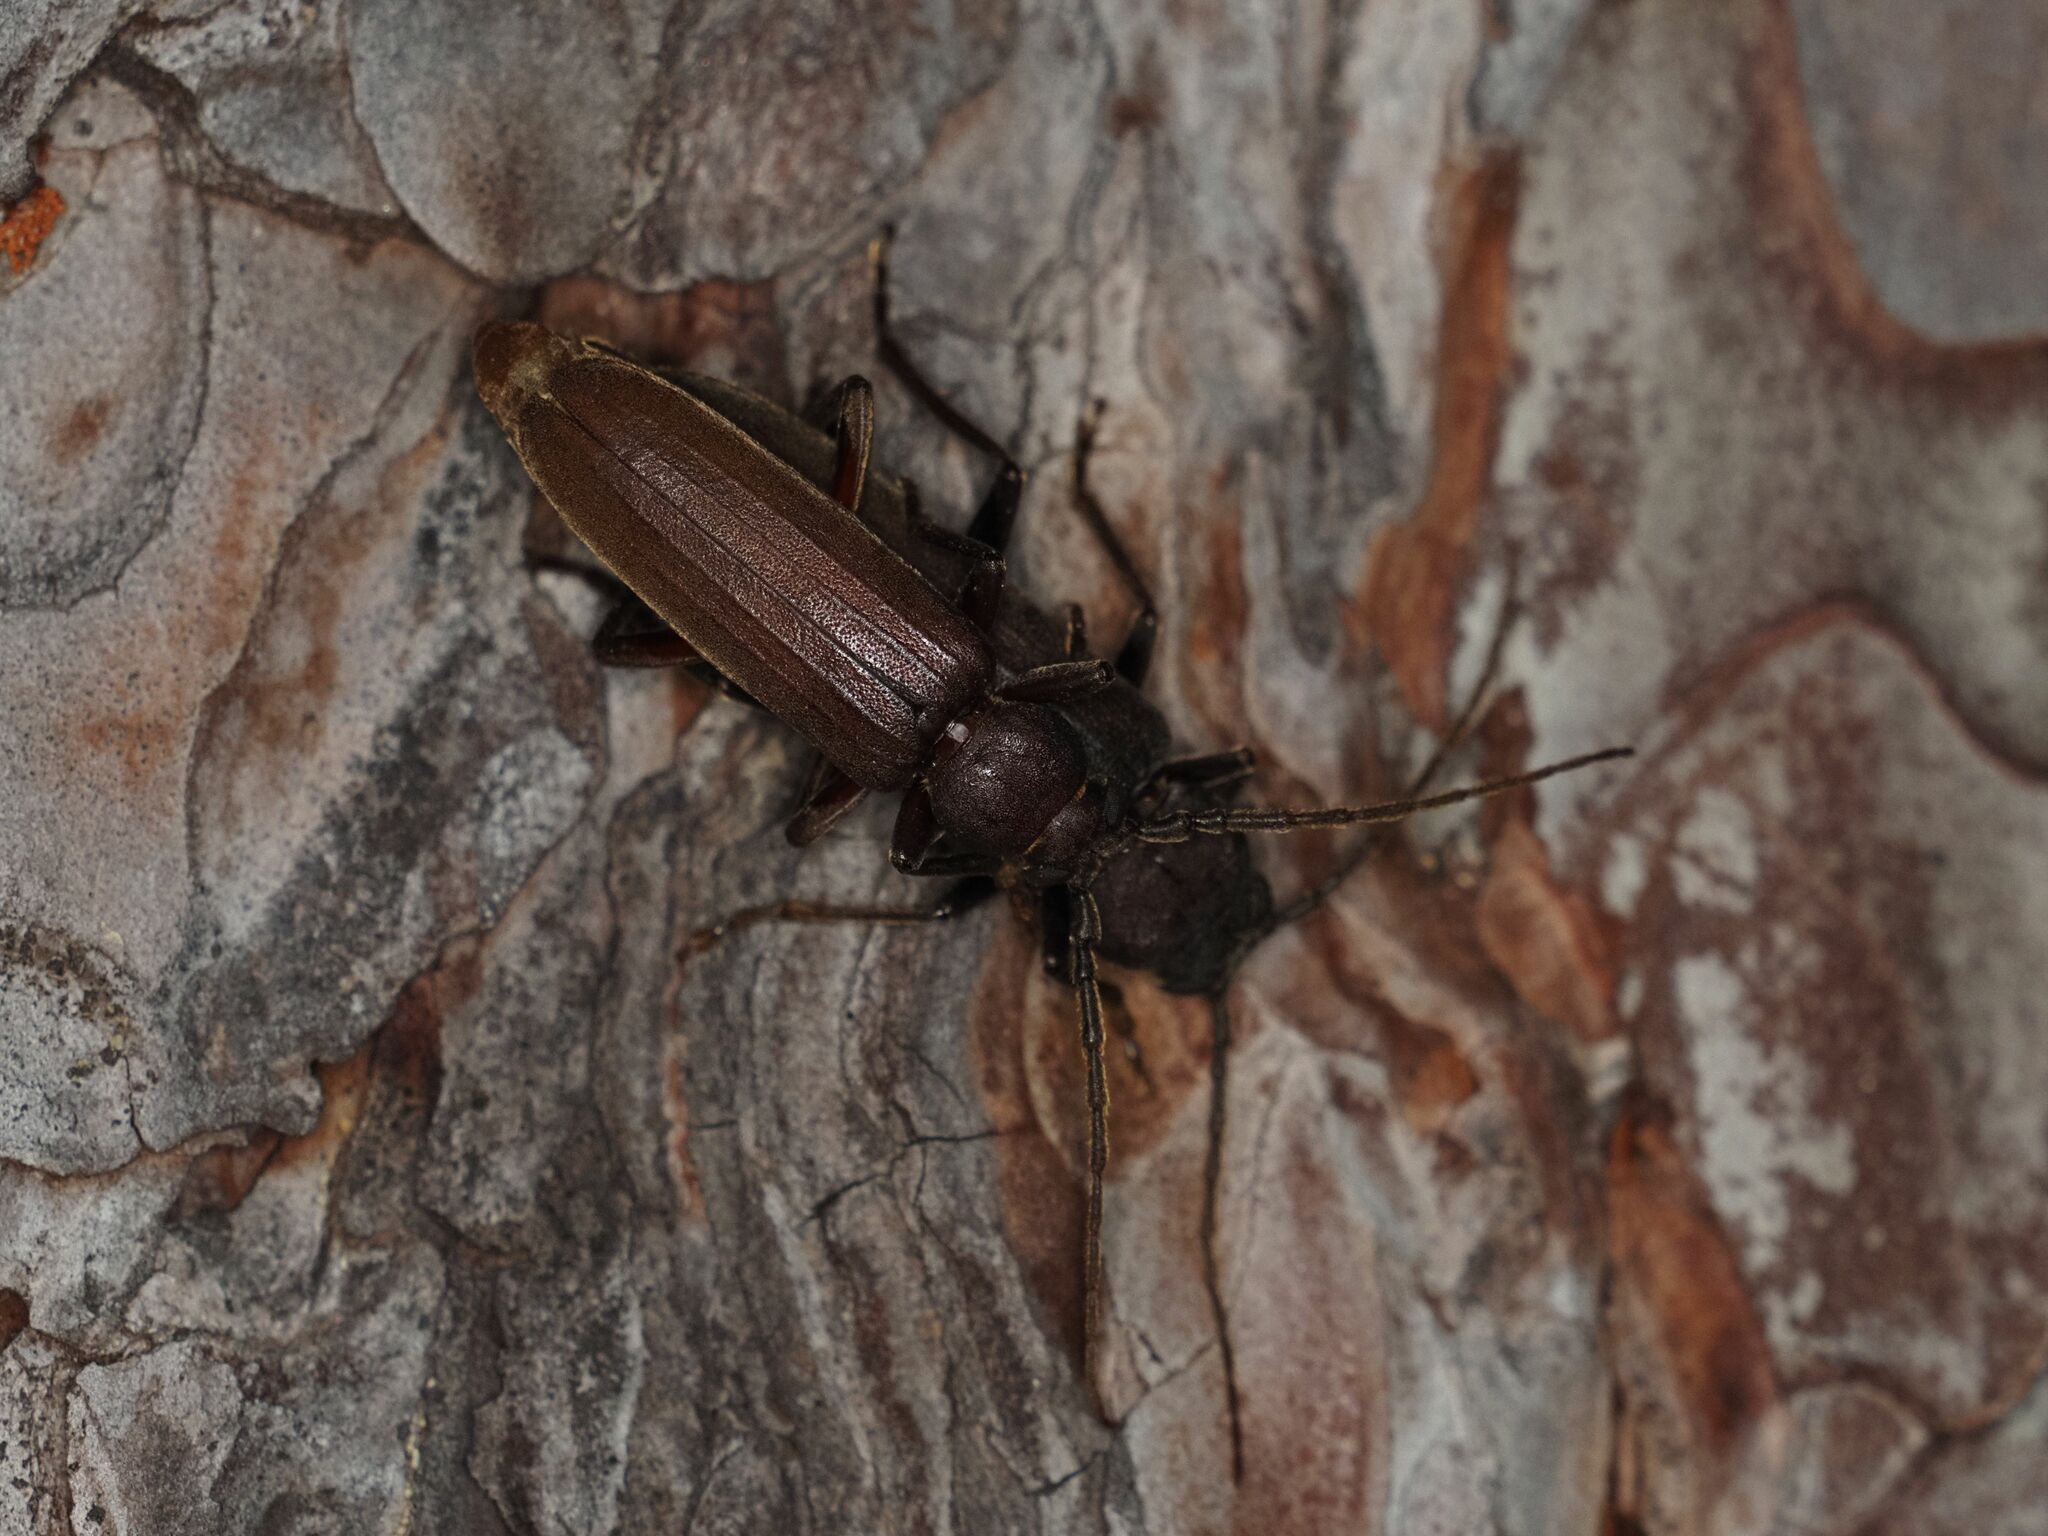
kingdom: Animalia
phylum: Arthropoda
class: Insecta
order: Coleoptera
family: Cerambycidae
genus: Arhopalus
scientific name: Arhopalus rusticus
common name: Rust pine borer
